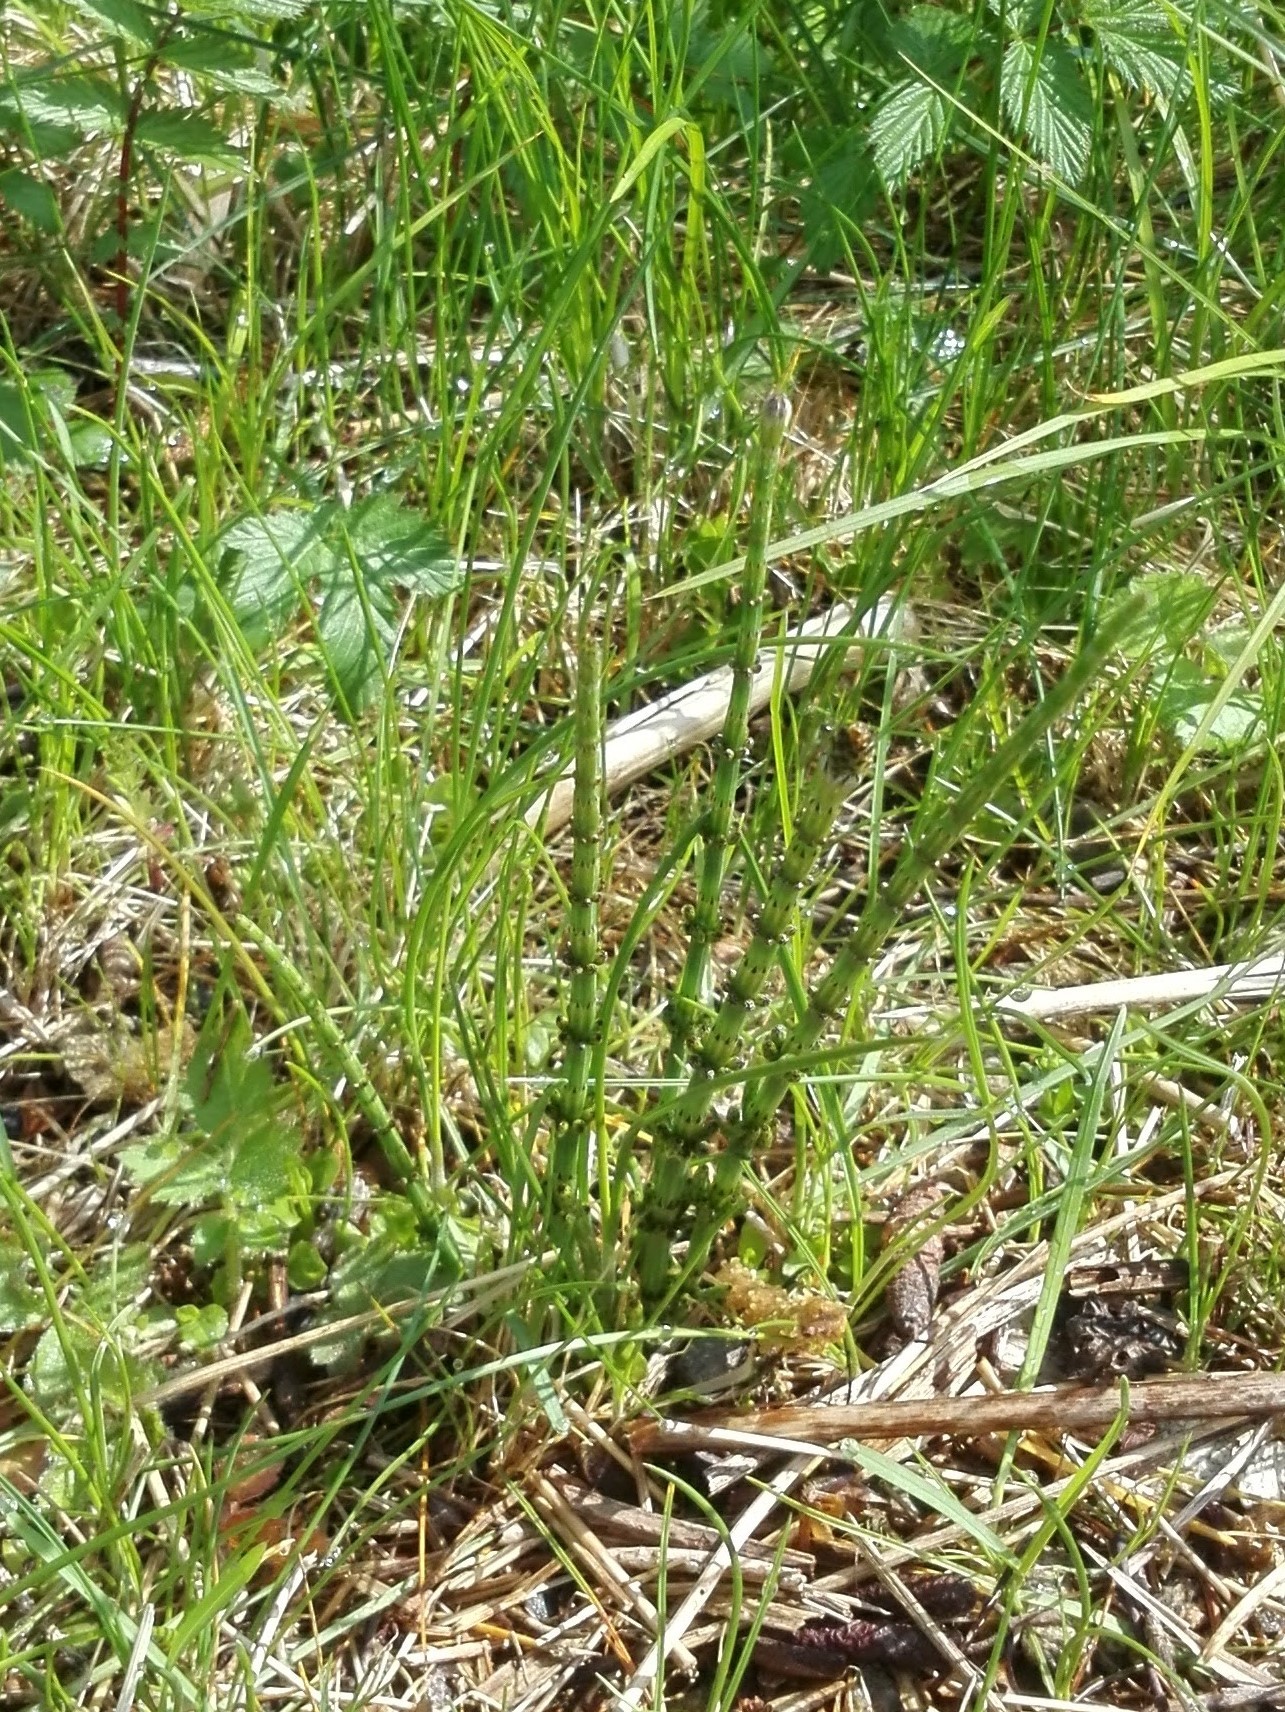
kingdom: Plantae
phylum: Tracheophyta
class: Polypodiopsida
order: Equisetales
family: Equisetaceae
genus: Equisetum
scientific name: Equisetum palustre
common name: Marsh horsetail
